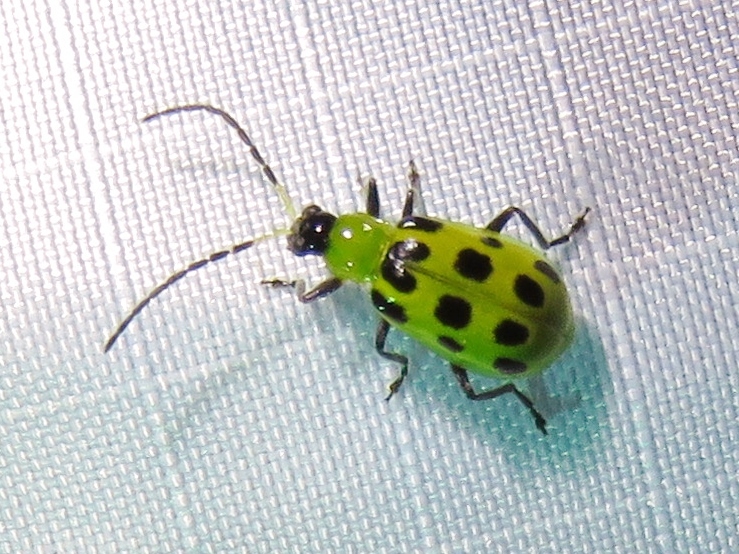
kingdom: Animalia
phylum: Arthropoda
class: Insecta
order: Coleoptera
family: Chrysomelidae
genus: Diabrotica
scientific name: Diabrotica undecimpunctata
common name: Spotted cucumber beetle
